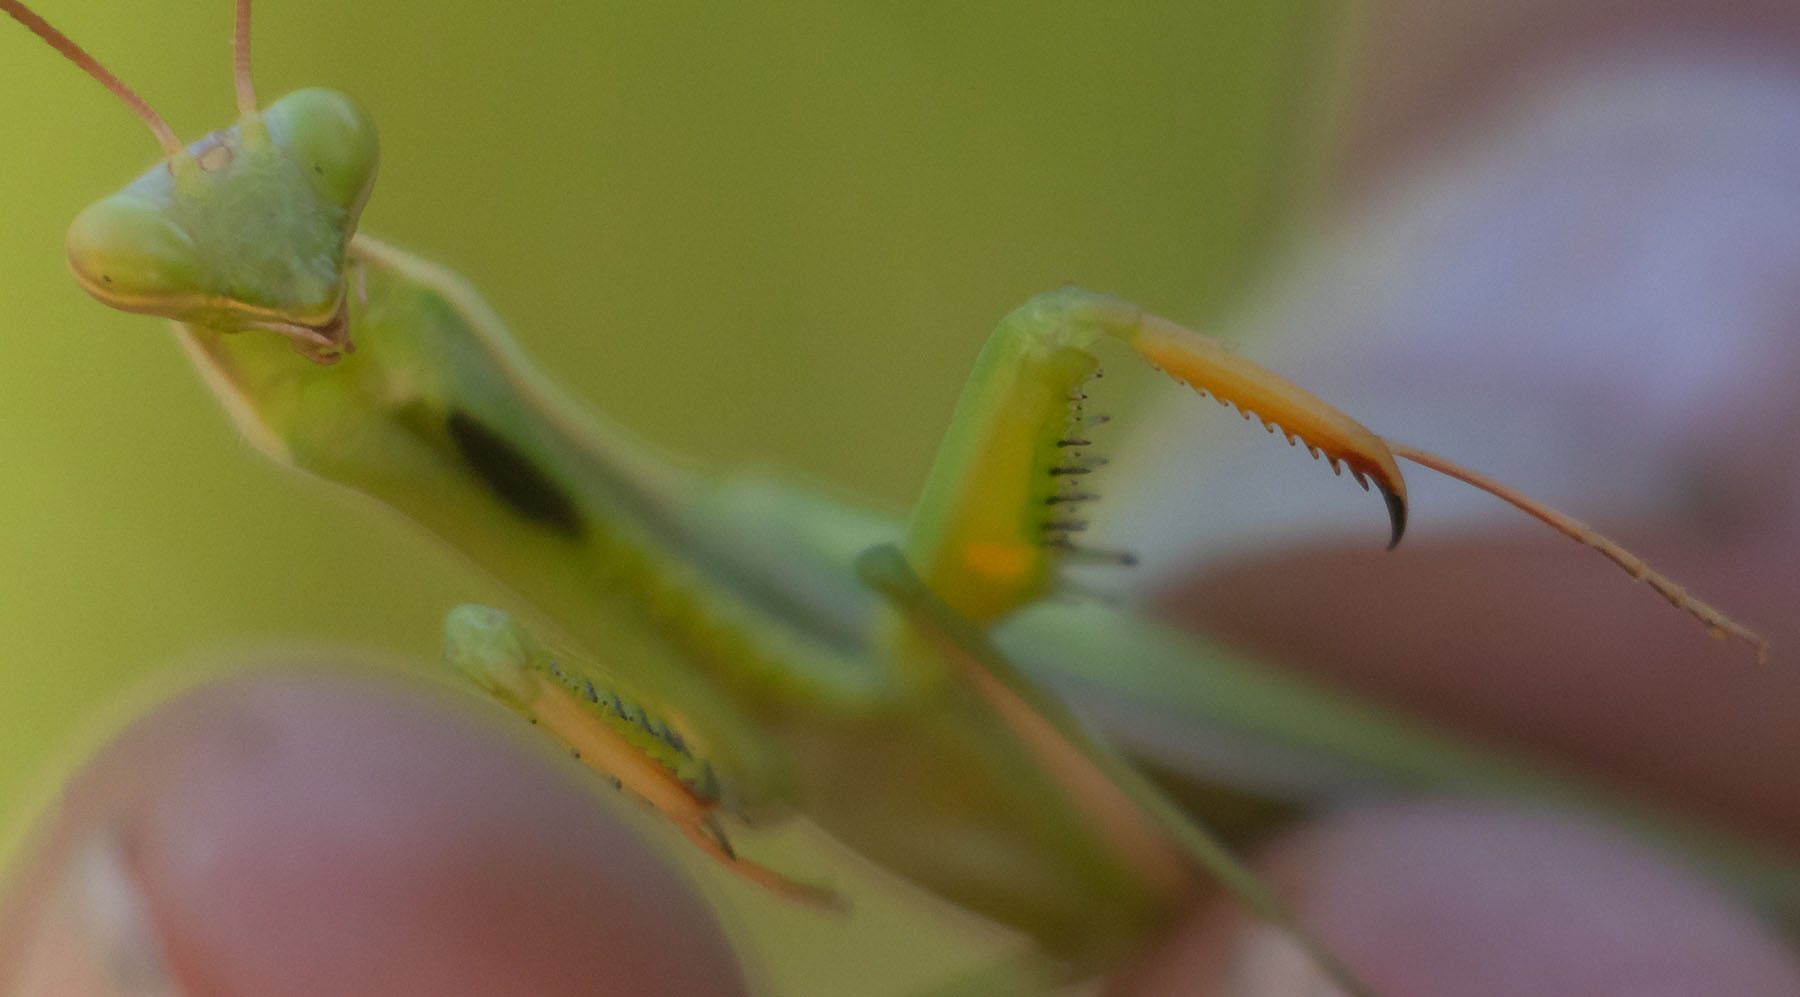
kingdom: Animalia
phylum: Arthropoda
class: Insecta
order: Mantodea
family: Mantidae
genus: Mantis
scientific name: Mantis religiosa
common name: Praying mantis
